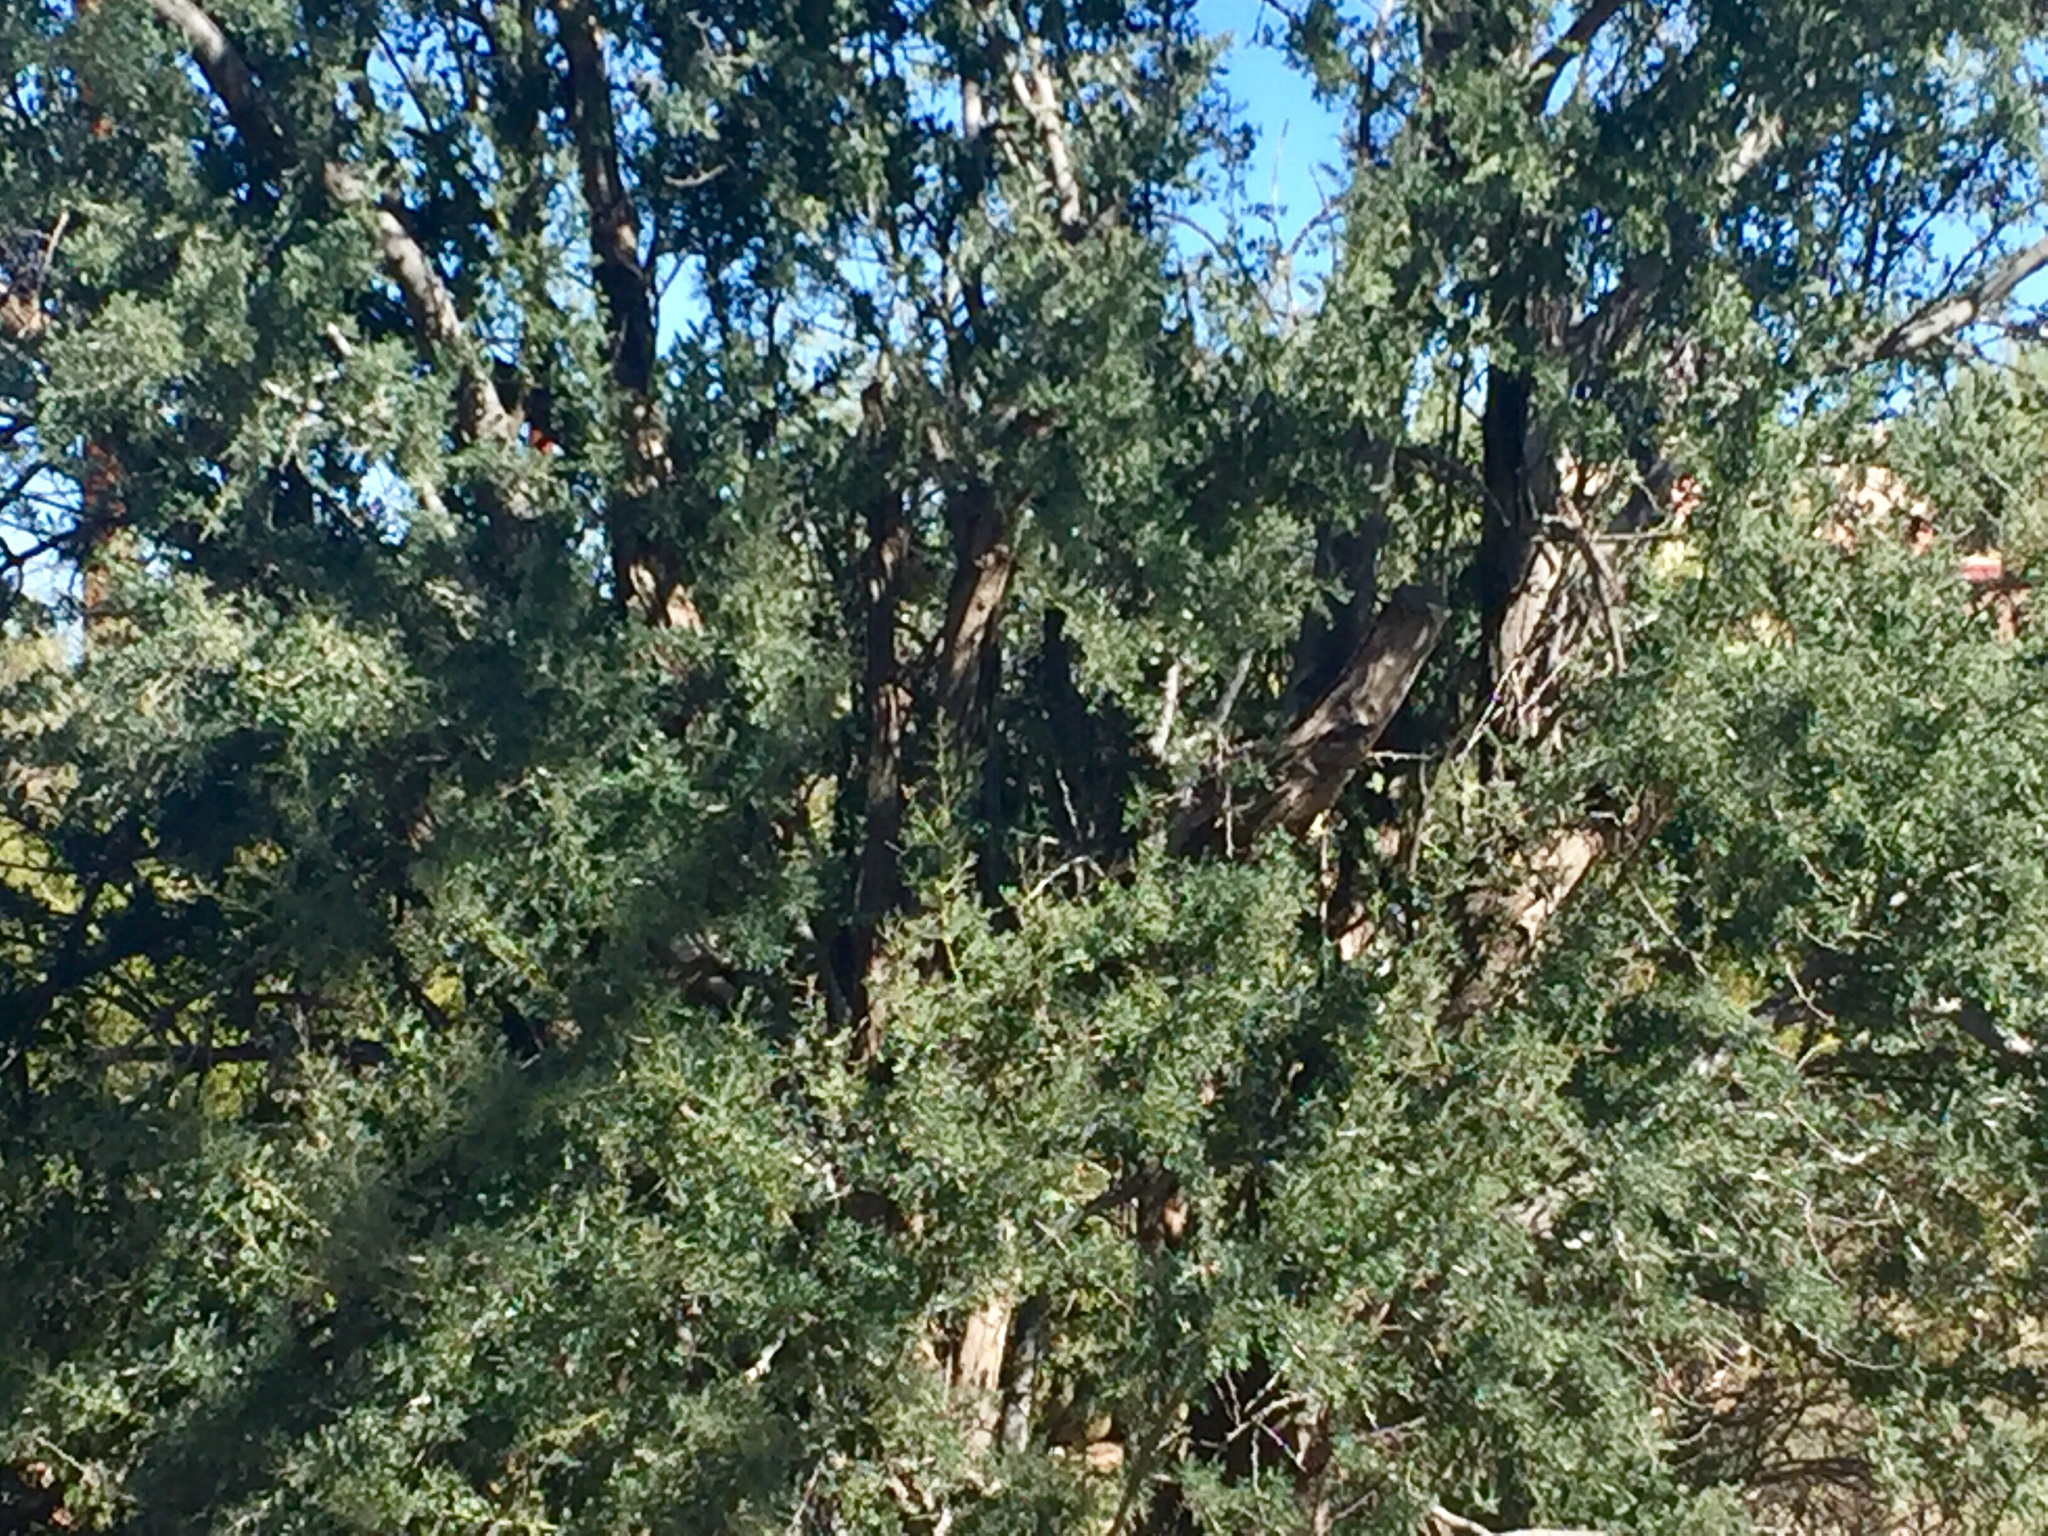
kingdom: Plantae
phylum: Tracheophyta
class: Magnoliopsida
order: Fabales
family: Fabaceae
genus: Olneya
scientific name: Olneya tesota
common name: Desert ironwood
